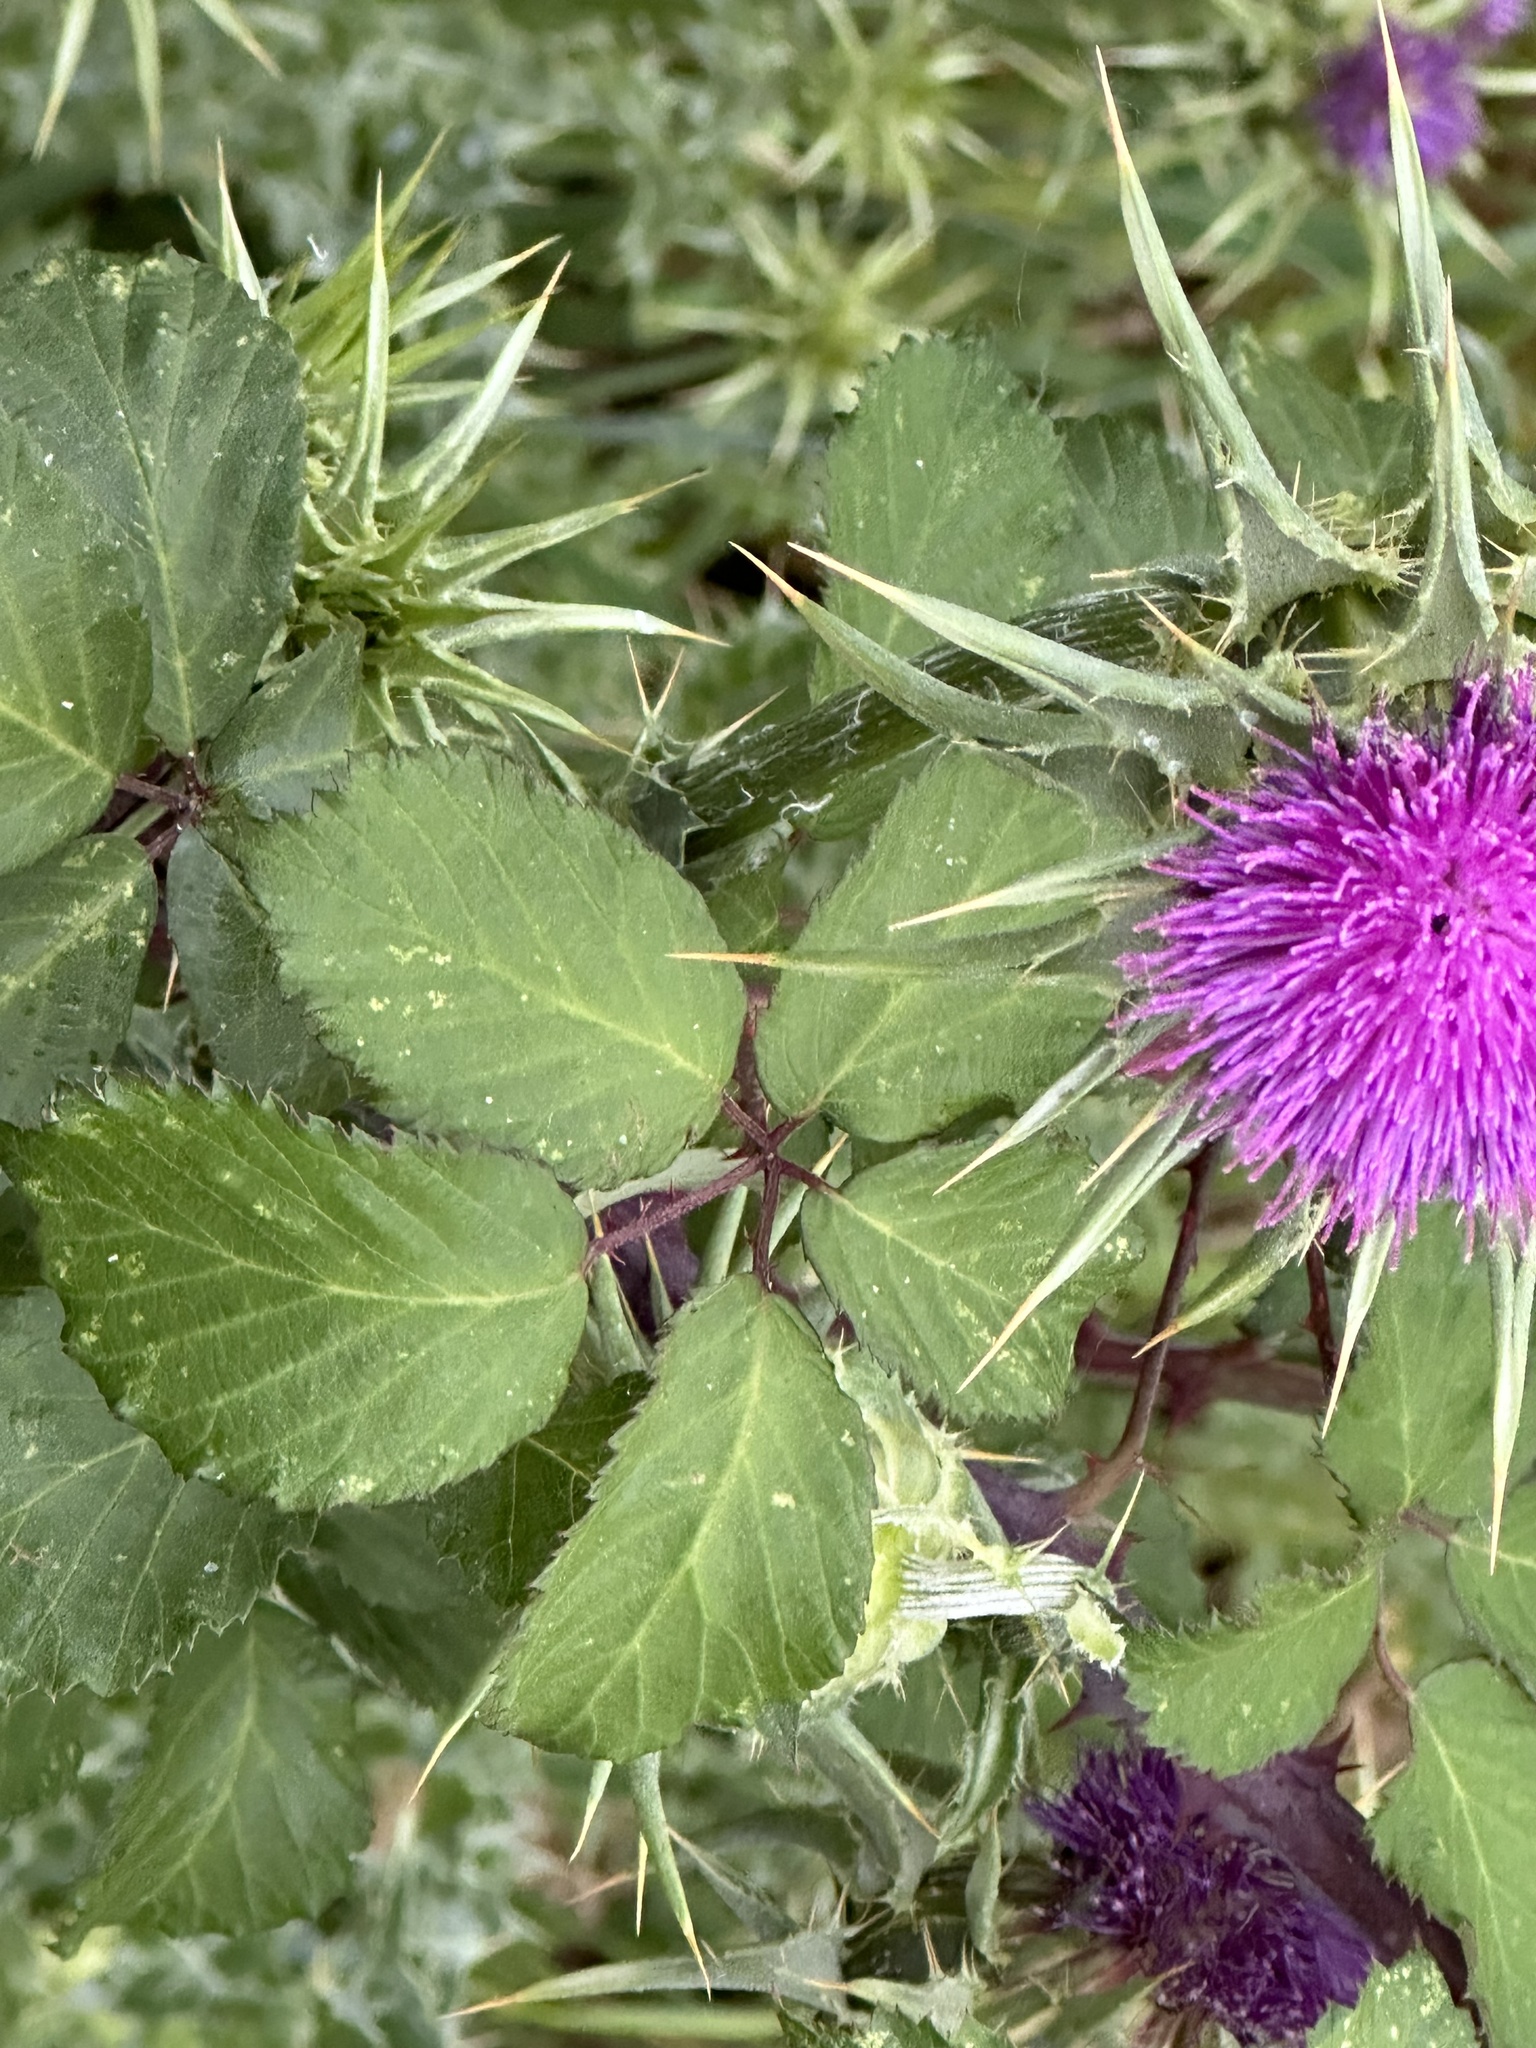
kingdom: Plantae
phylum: Tracheophyta
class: Magnoliopsida
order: Asterales
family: Asteraceae
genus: Silybum
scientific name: Silybum marianum
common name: Milk thistle
